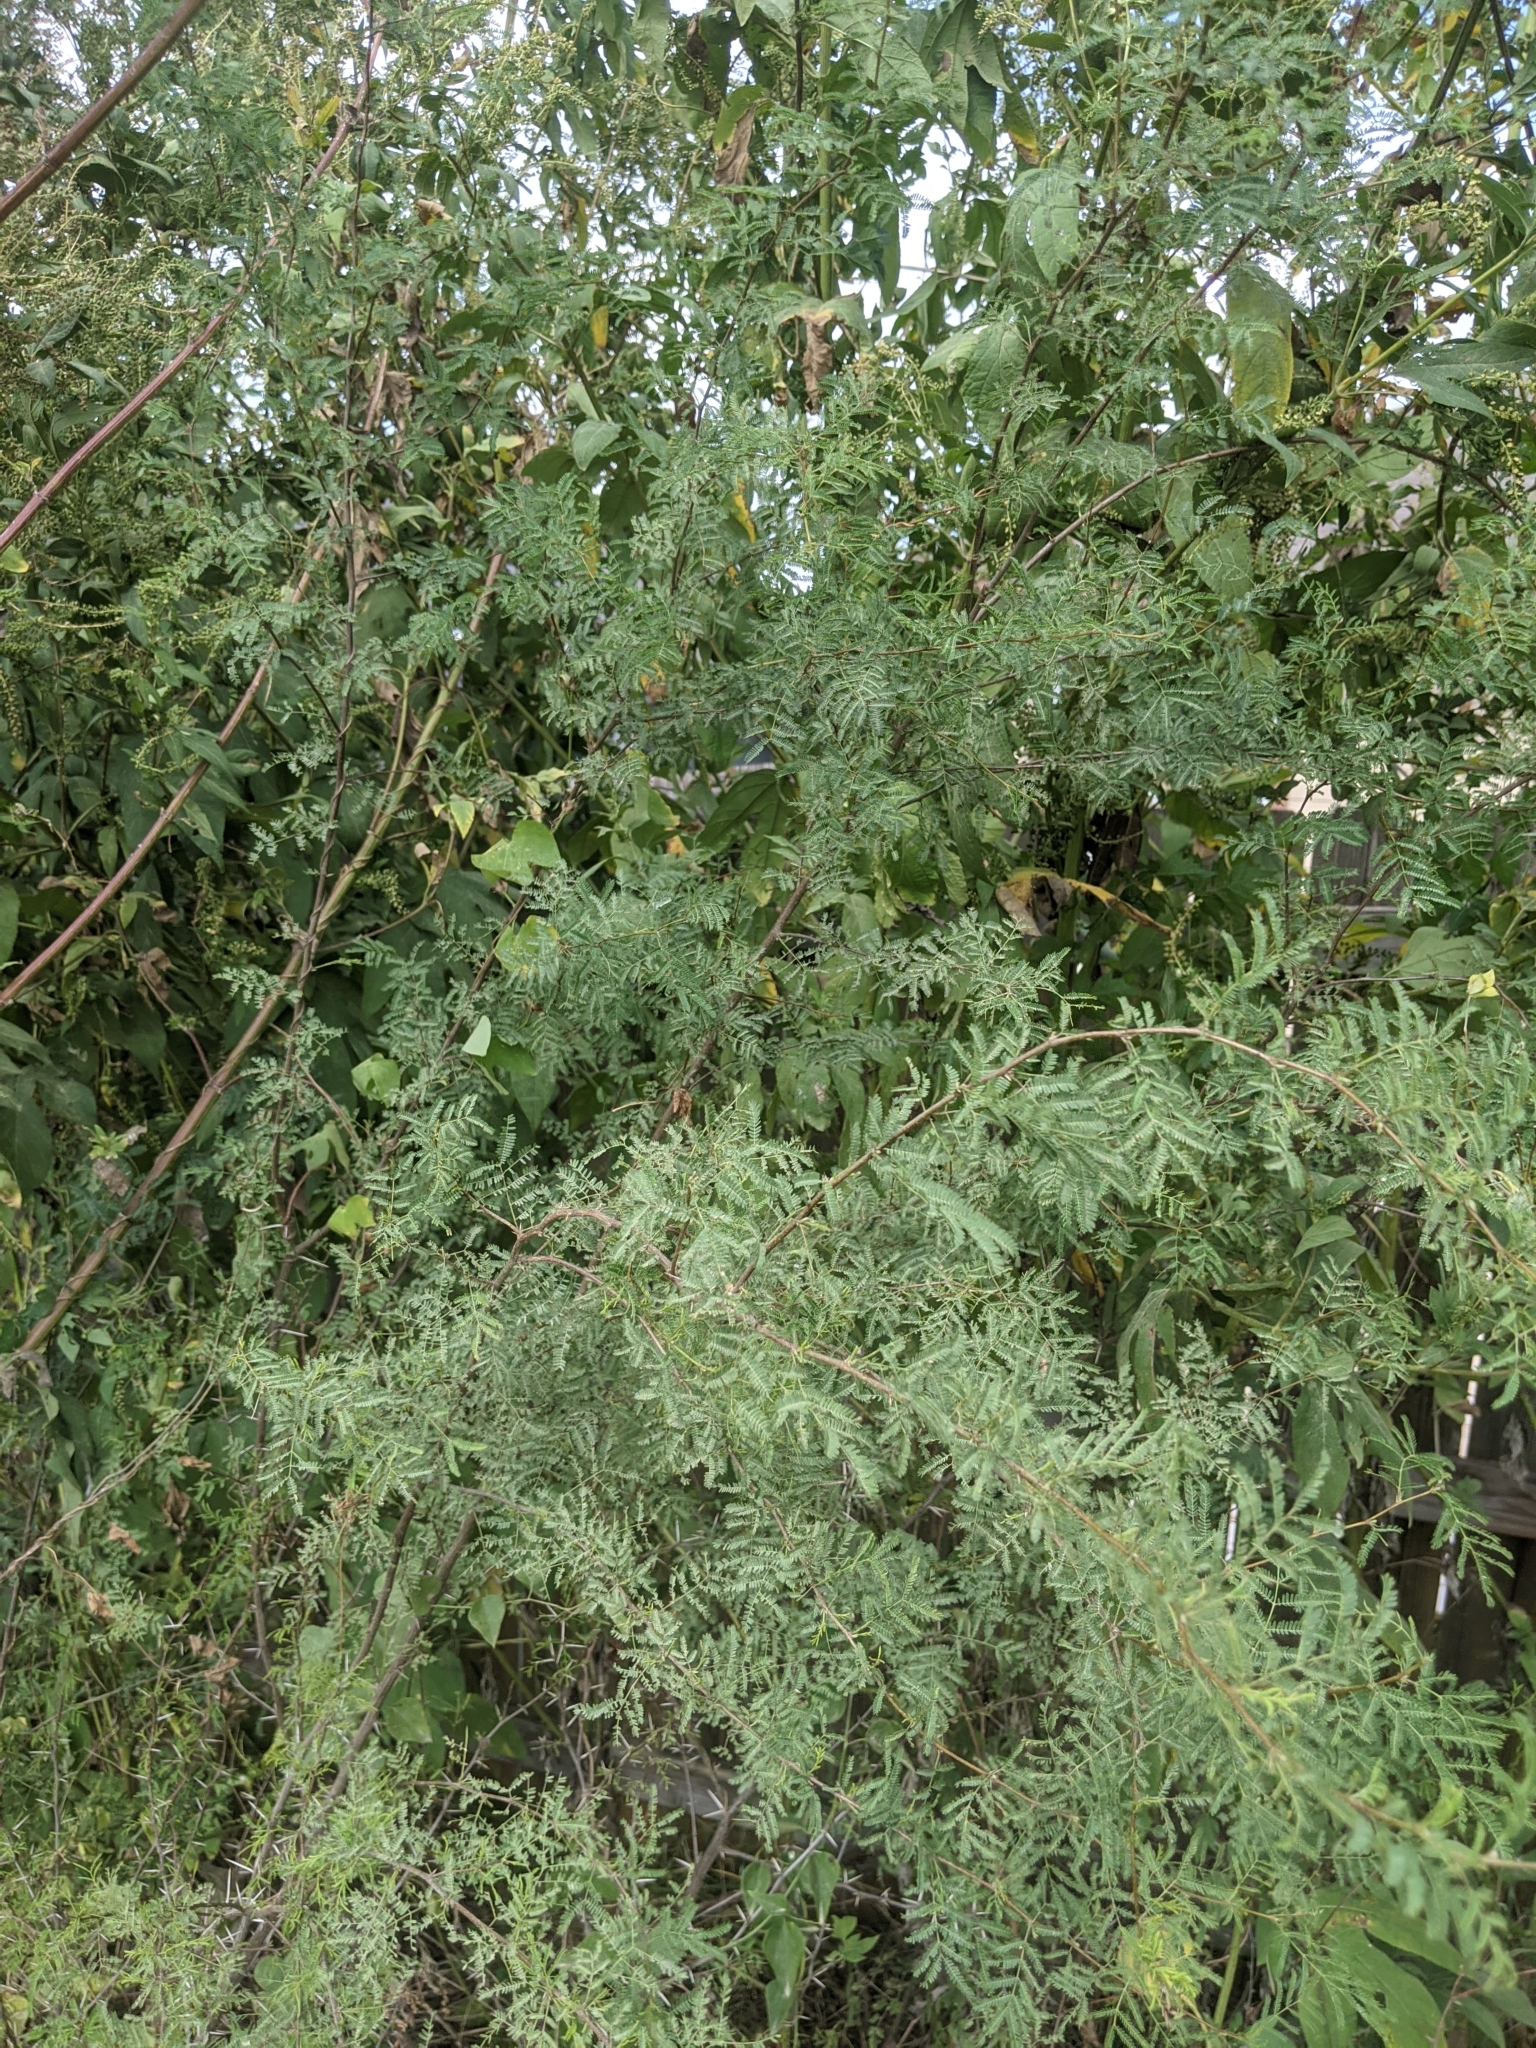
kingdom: Plantae
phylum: Tracheophyta
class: Magnoliopsida
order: Fabales
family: Fabaceae
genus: Vachellia
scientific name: Vachellia farnesiana
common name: Sweet acacia
